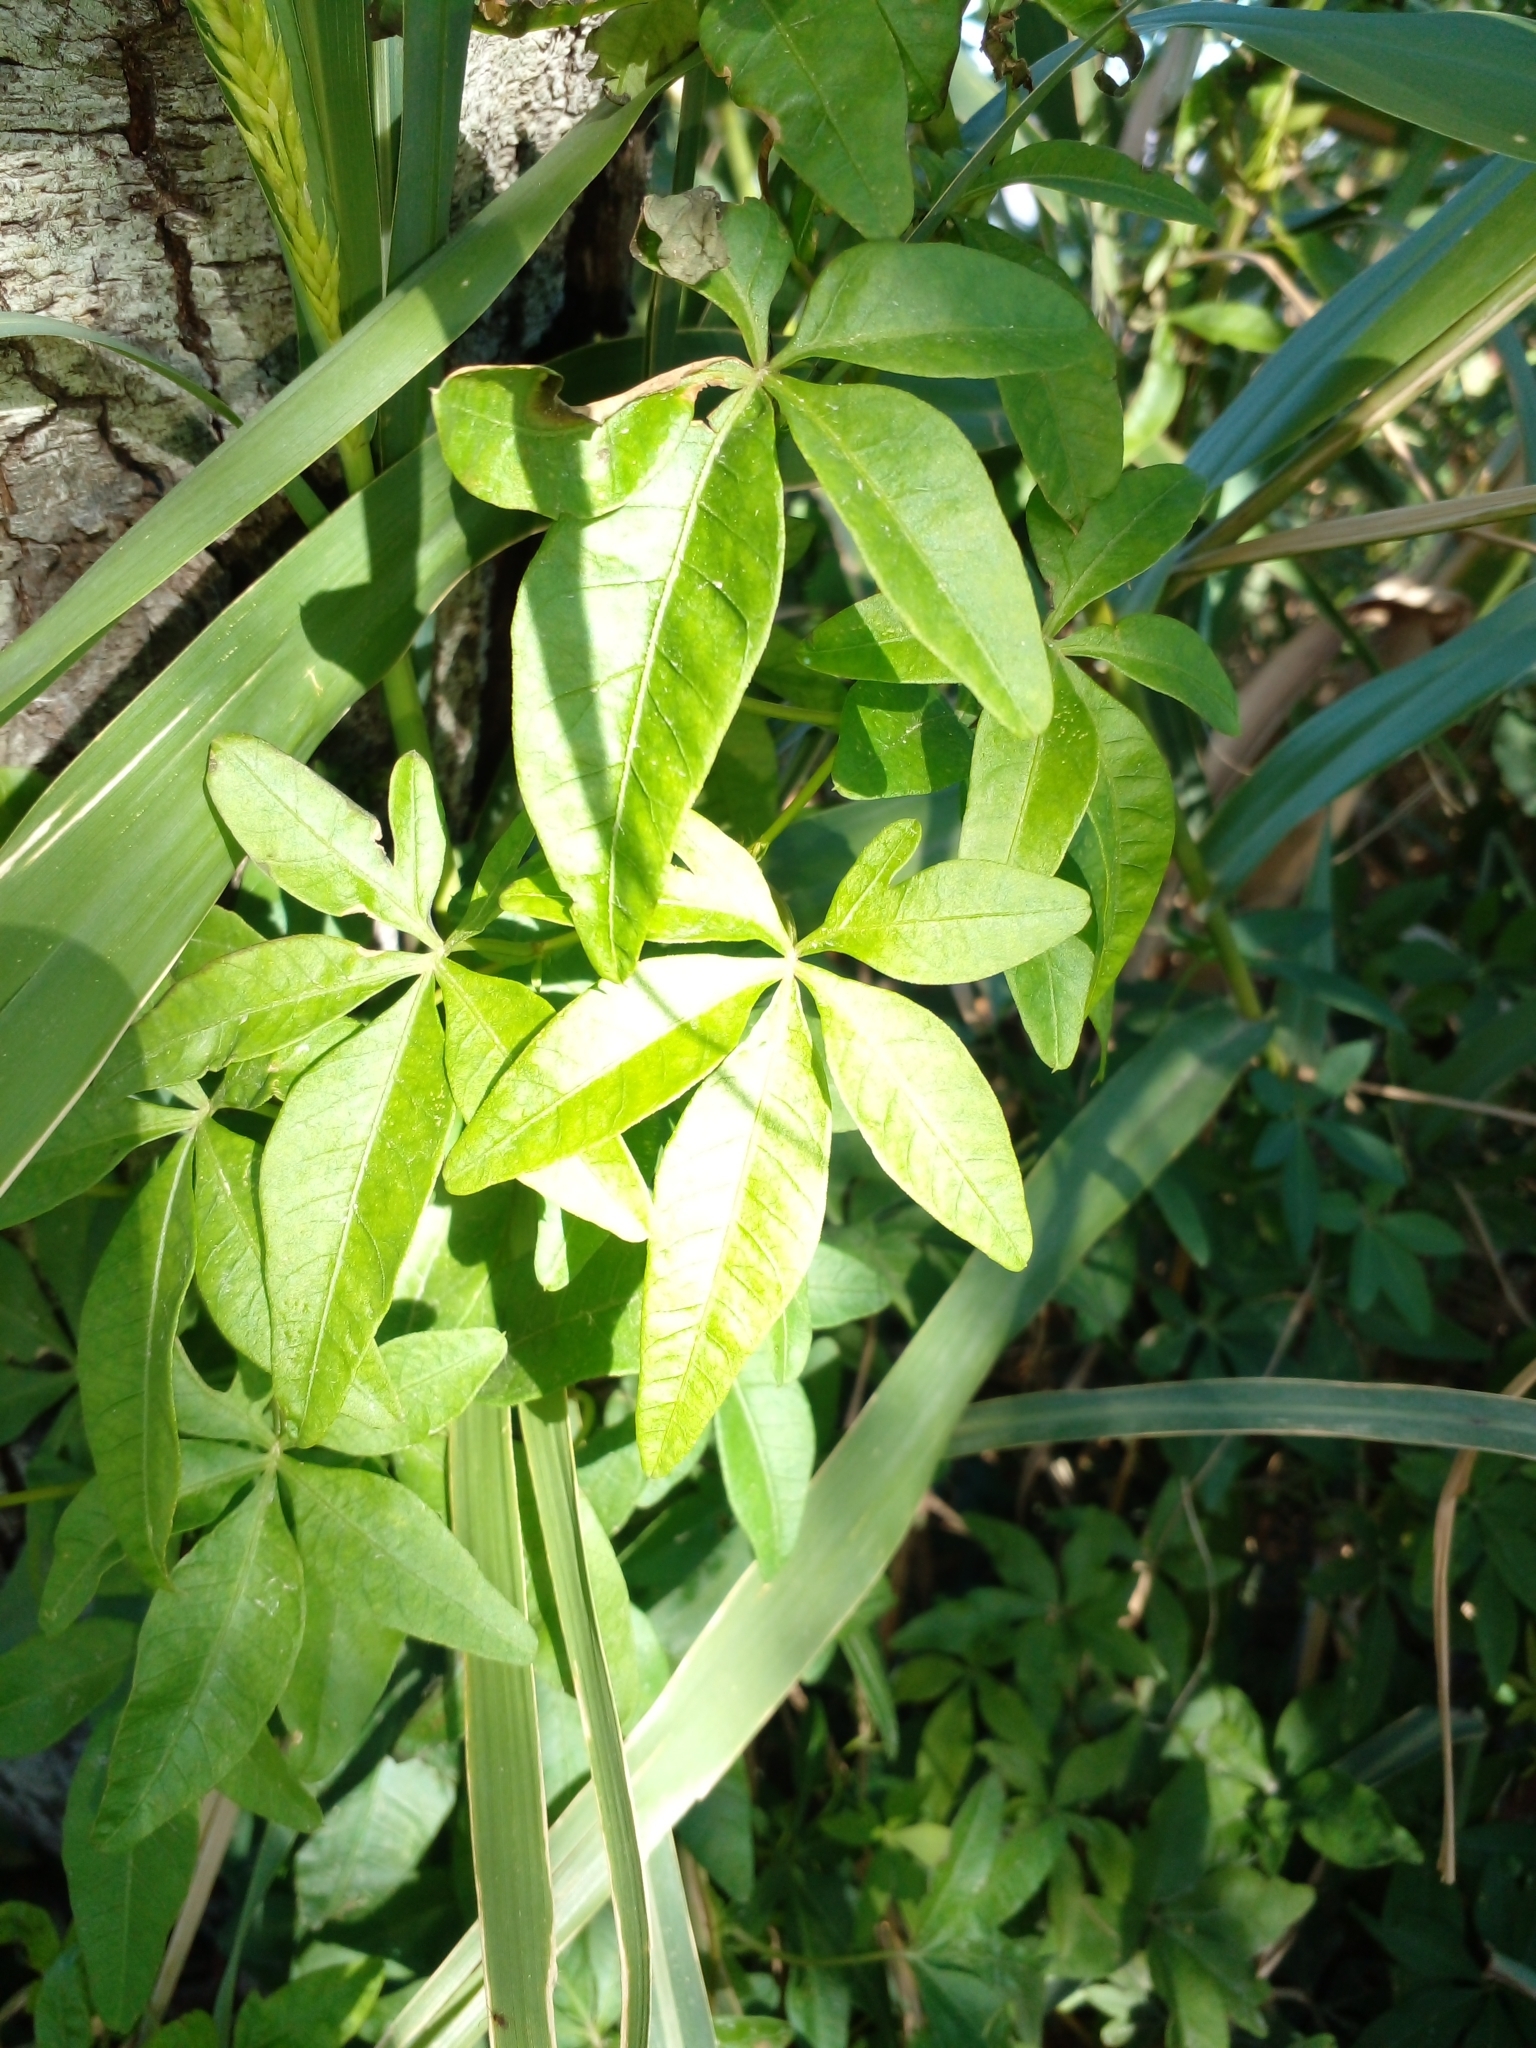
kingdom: Plantae
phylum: Tracheophyta
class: Magnoliopsida
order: Solanales
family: Convolvulaceae
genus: Ipomoea
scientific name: Ipomoea cairica
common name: Mile a minute vine
